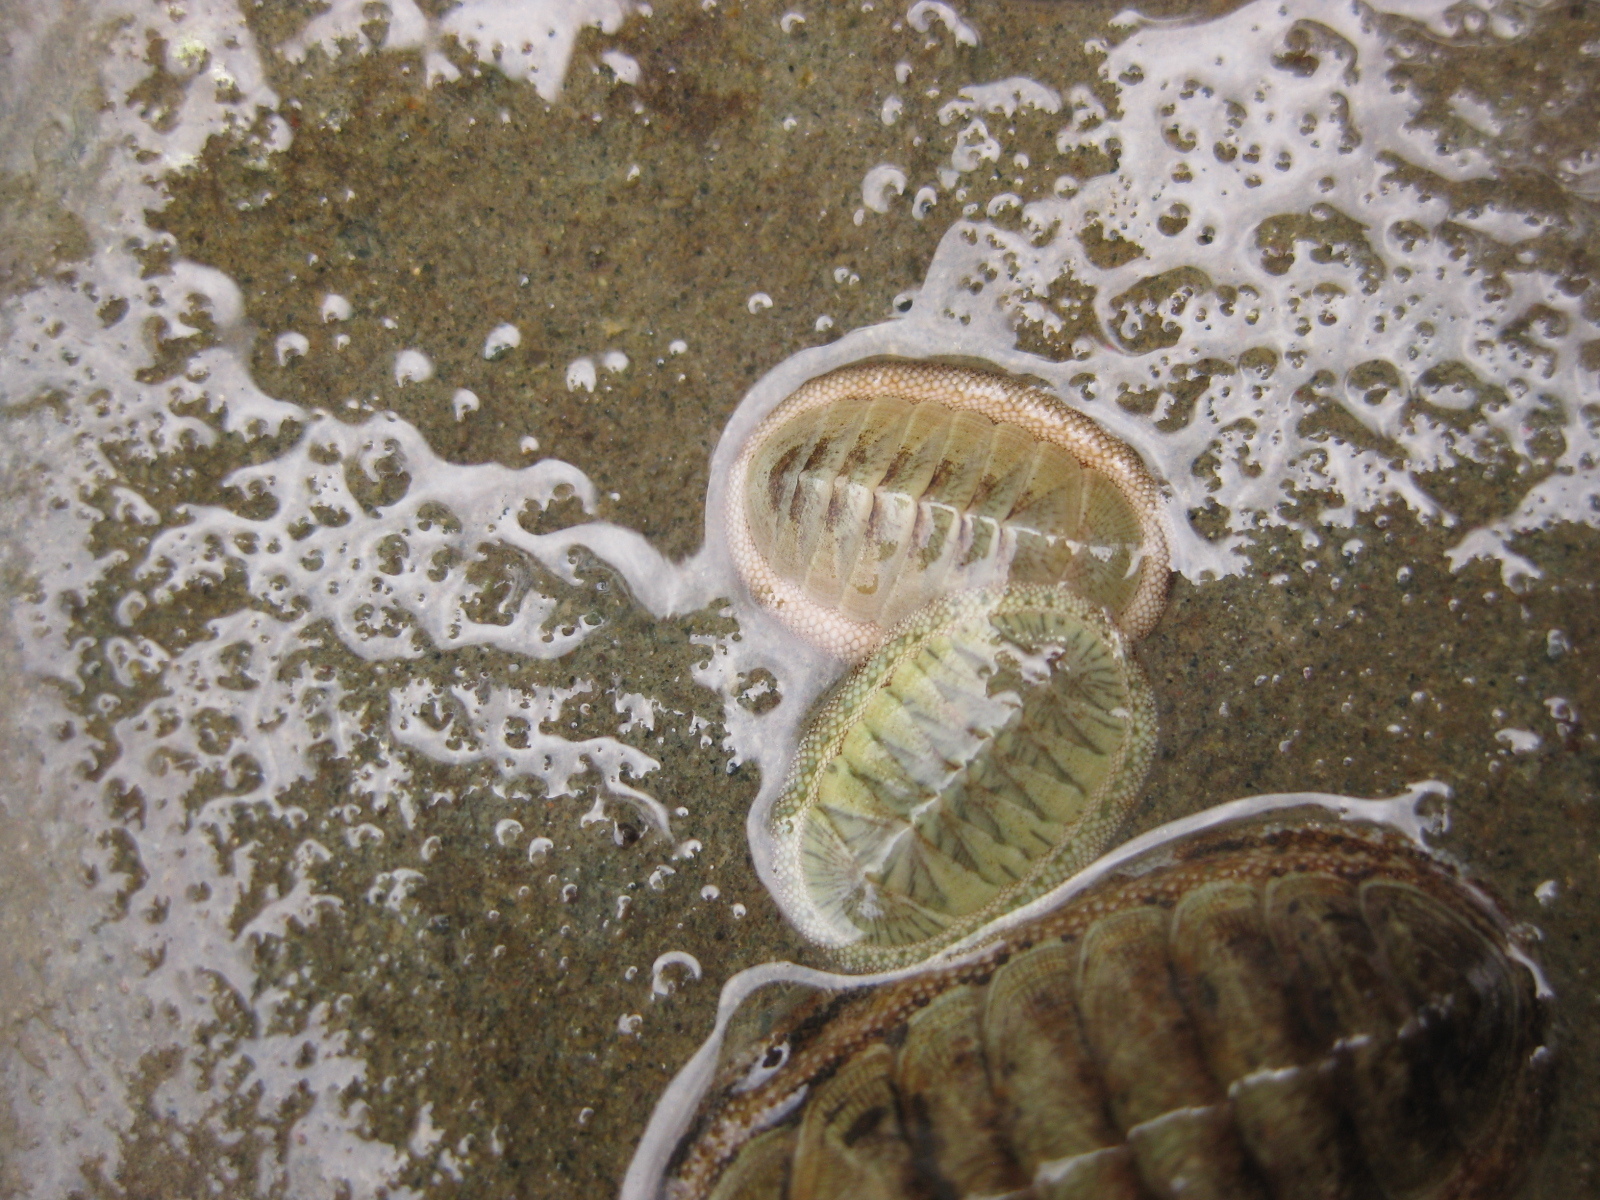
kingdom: Animalia
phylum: Mollusca
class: Polyplacophora
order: Chitonida
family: Chitonidae
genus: Chiton
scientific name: Chiton glaucus
